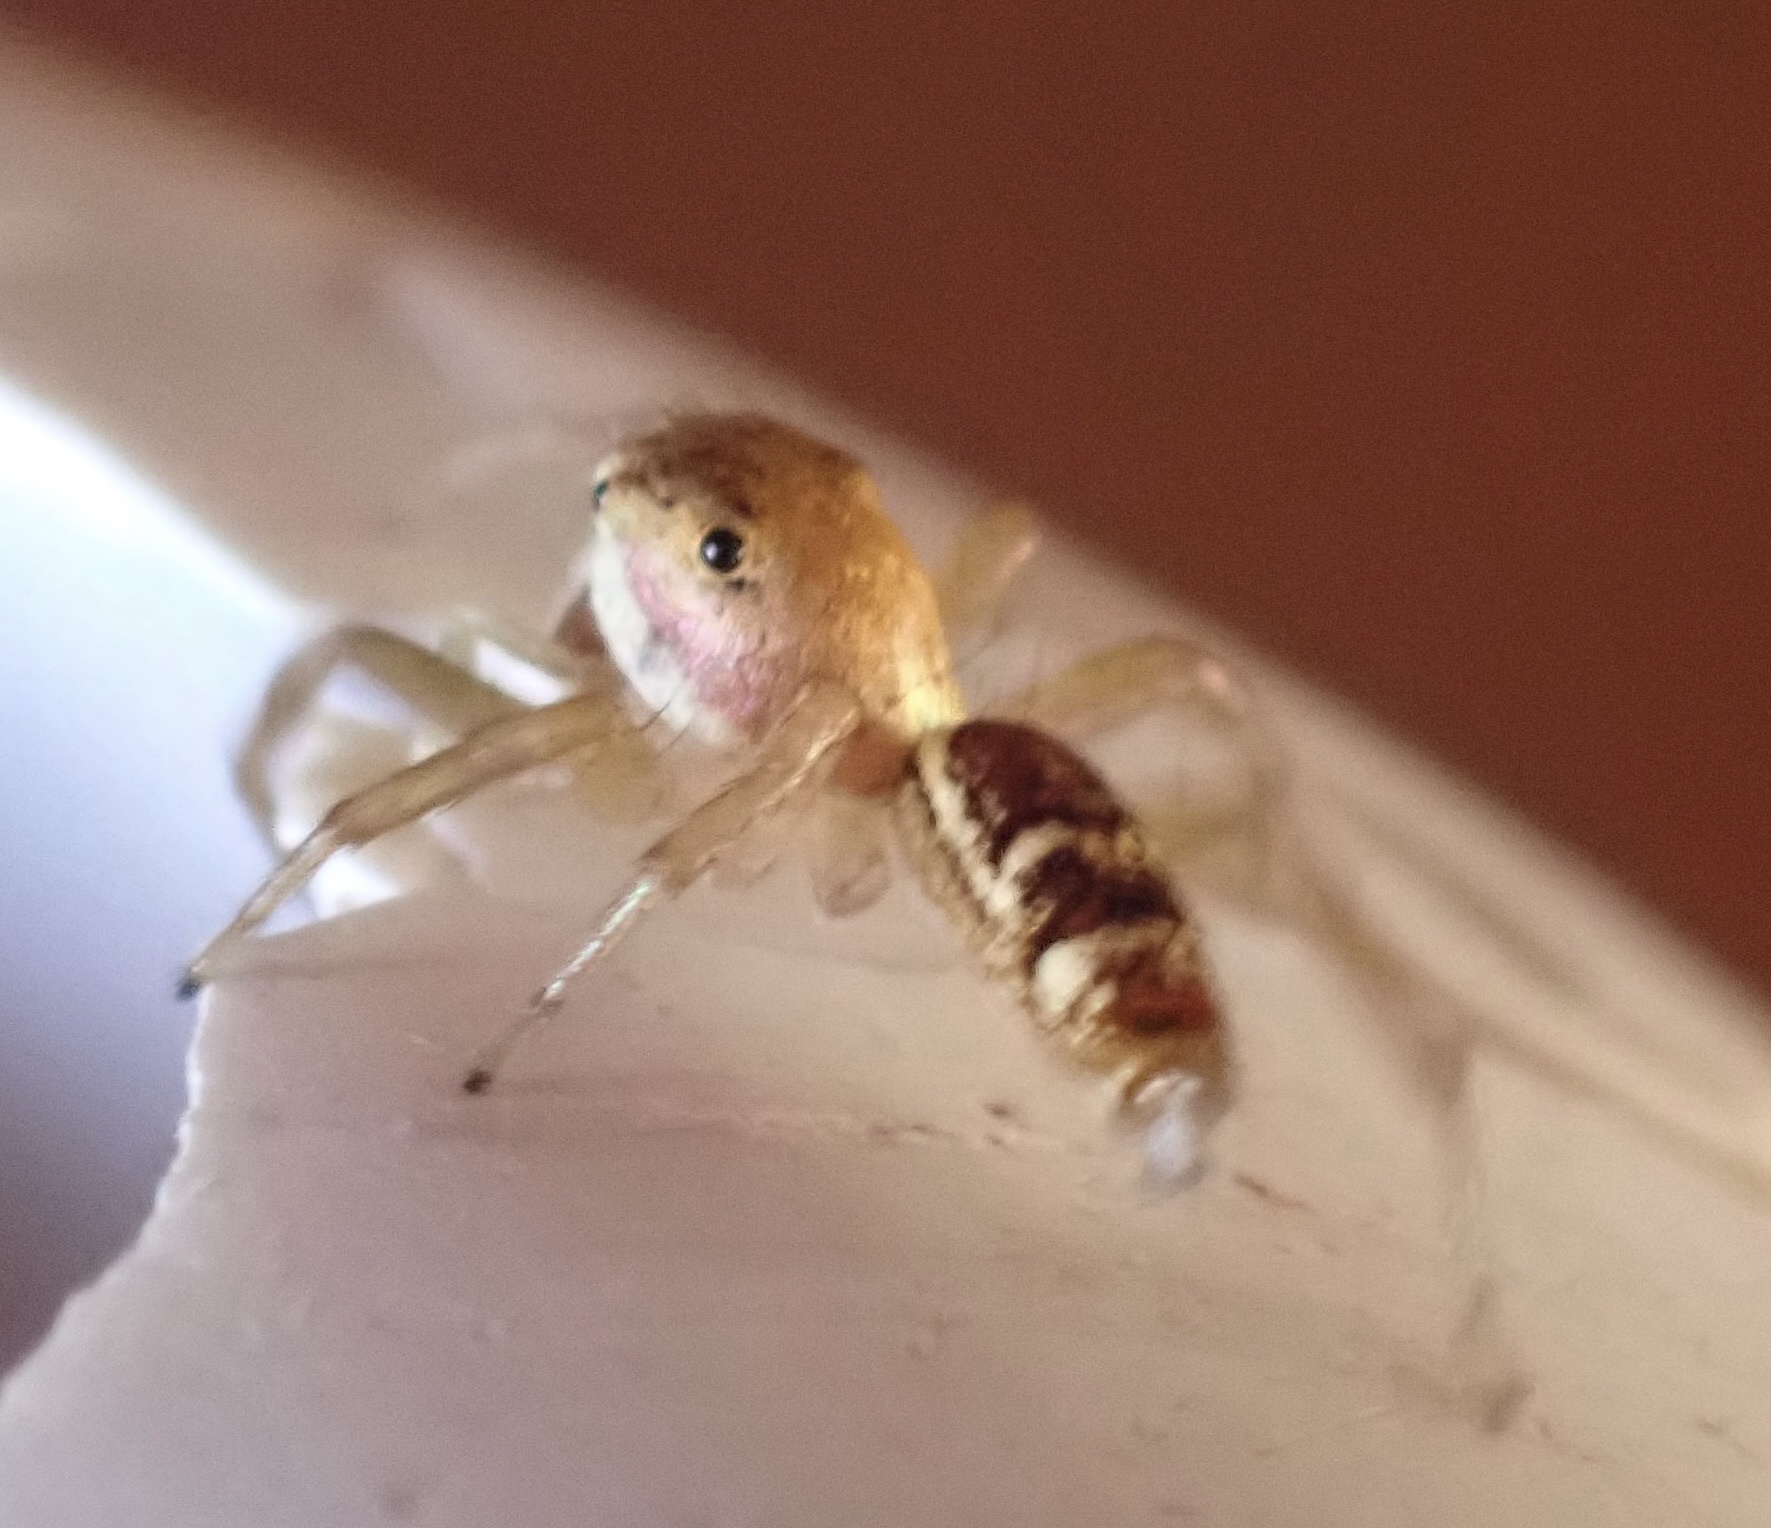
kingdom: Animalia
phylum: Arthropoda
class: Arachnida
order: Araneae
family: Salticidae
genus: Cosmophasis
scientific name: Cosmophasis lami
